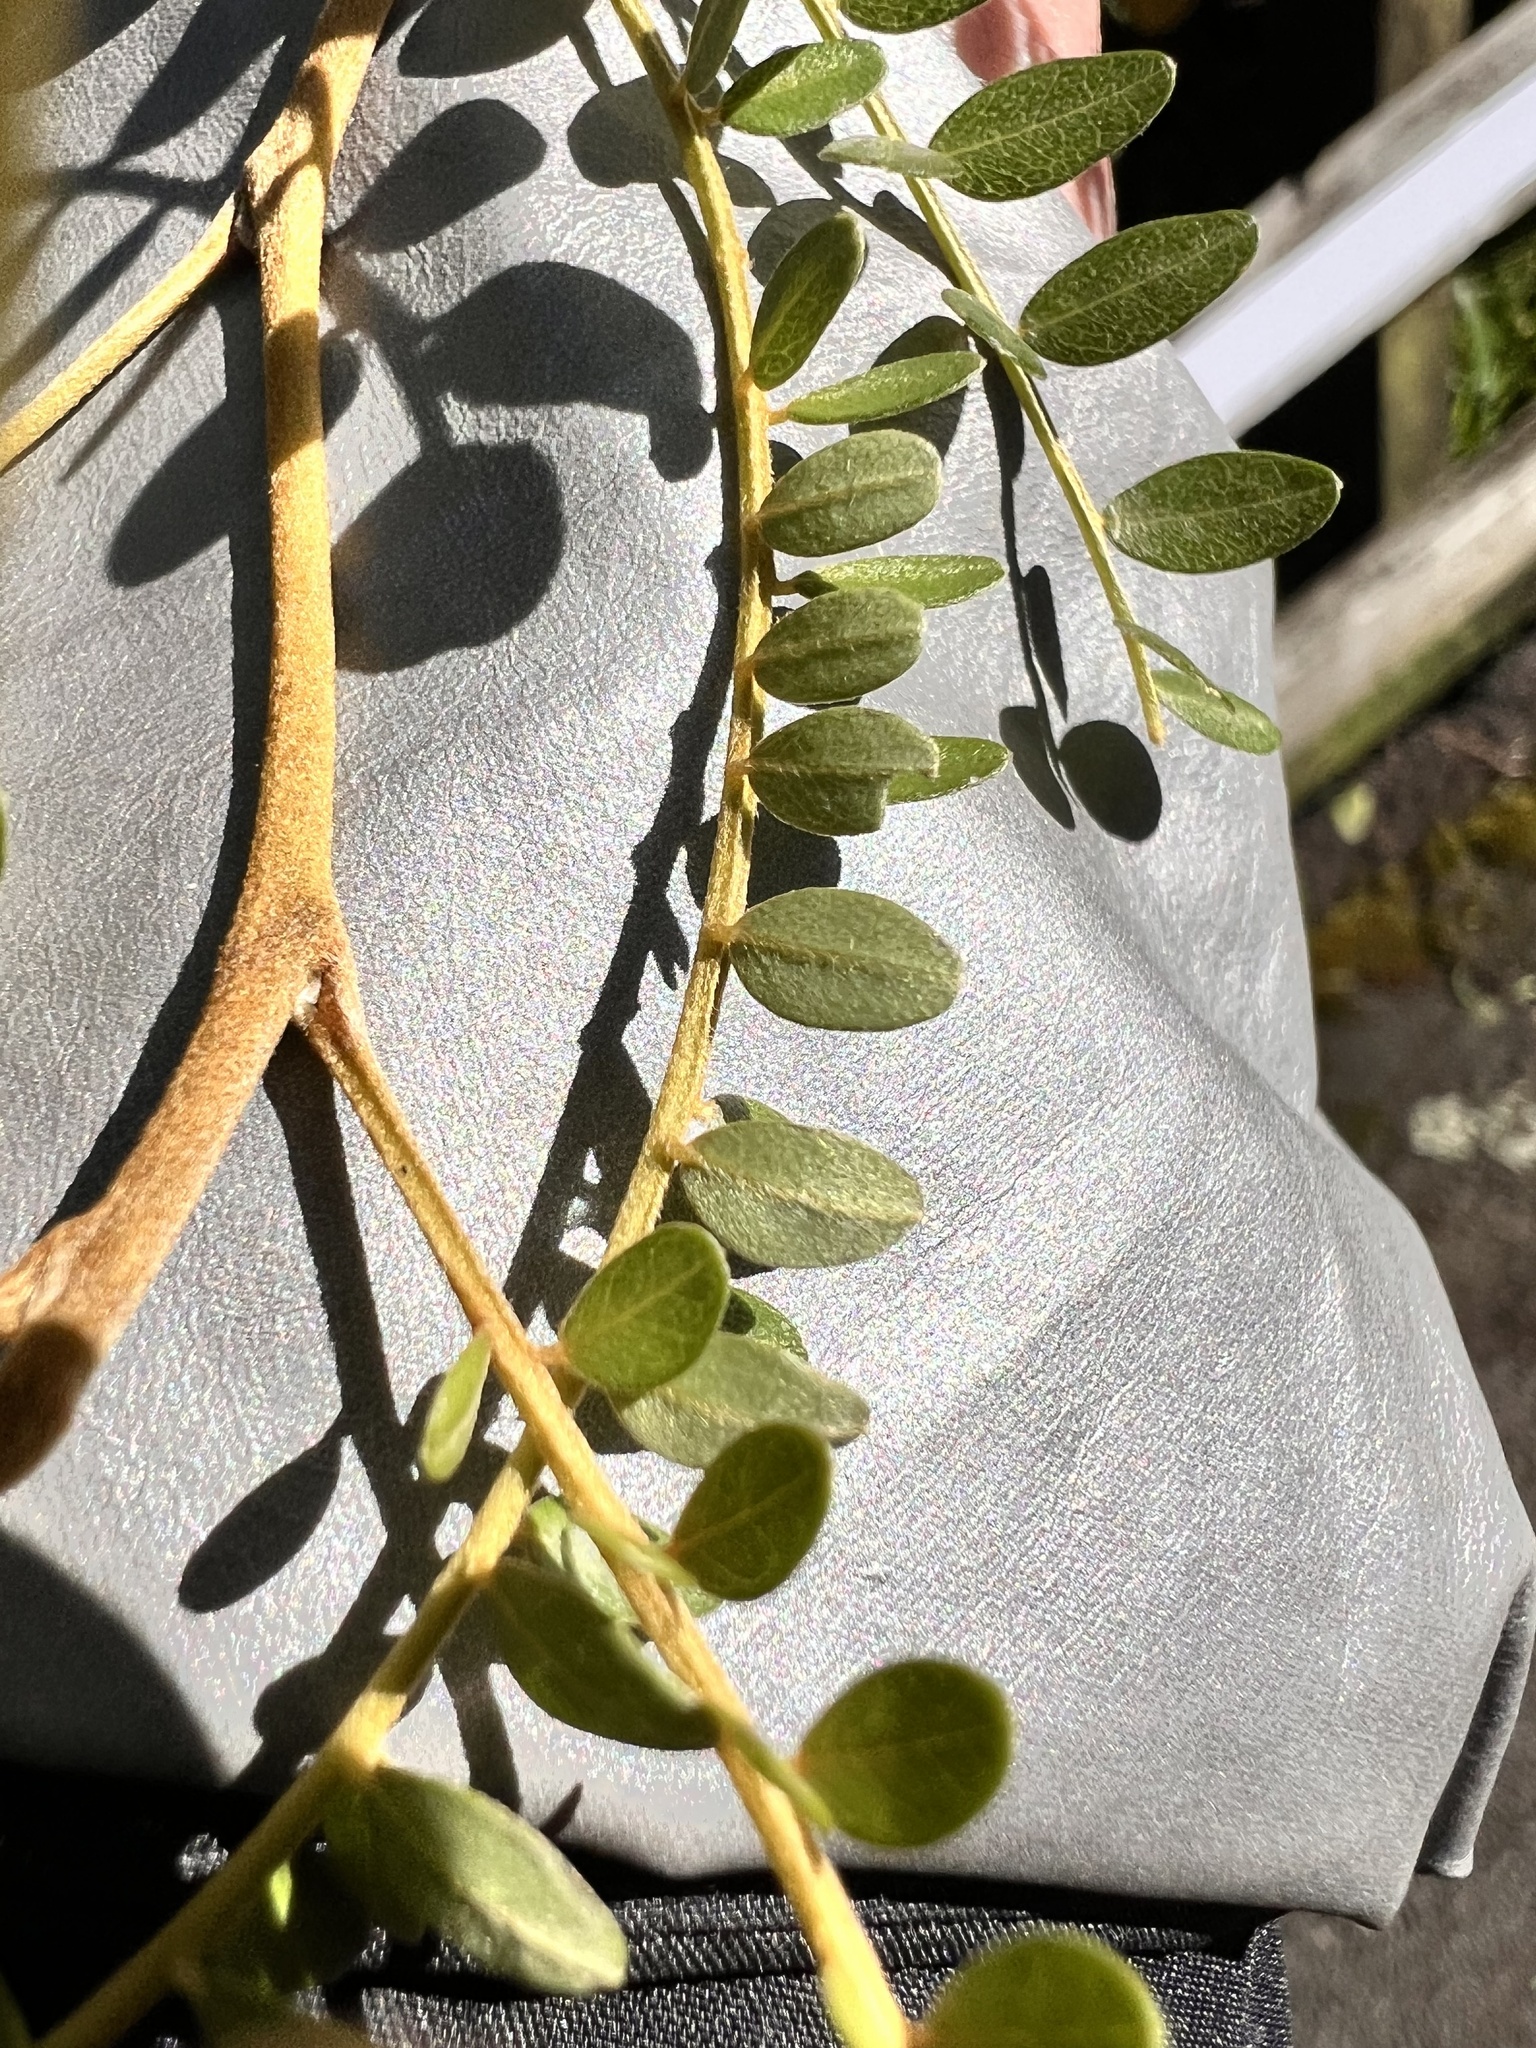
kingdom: Plantae
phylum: Tracheophyta
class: Magnoliopsida
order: Fabales
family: Fabaceae
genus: Sophora
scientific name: Sophora microphylla
